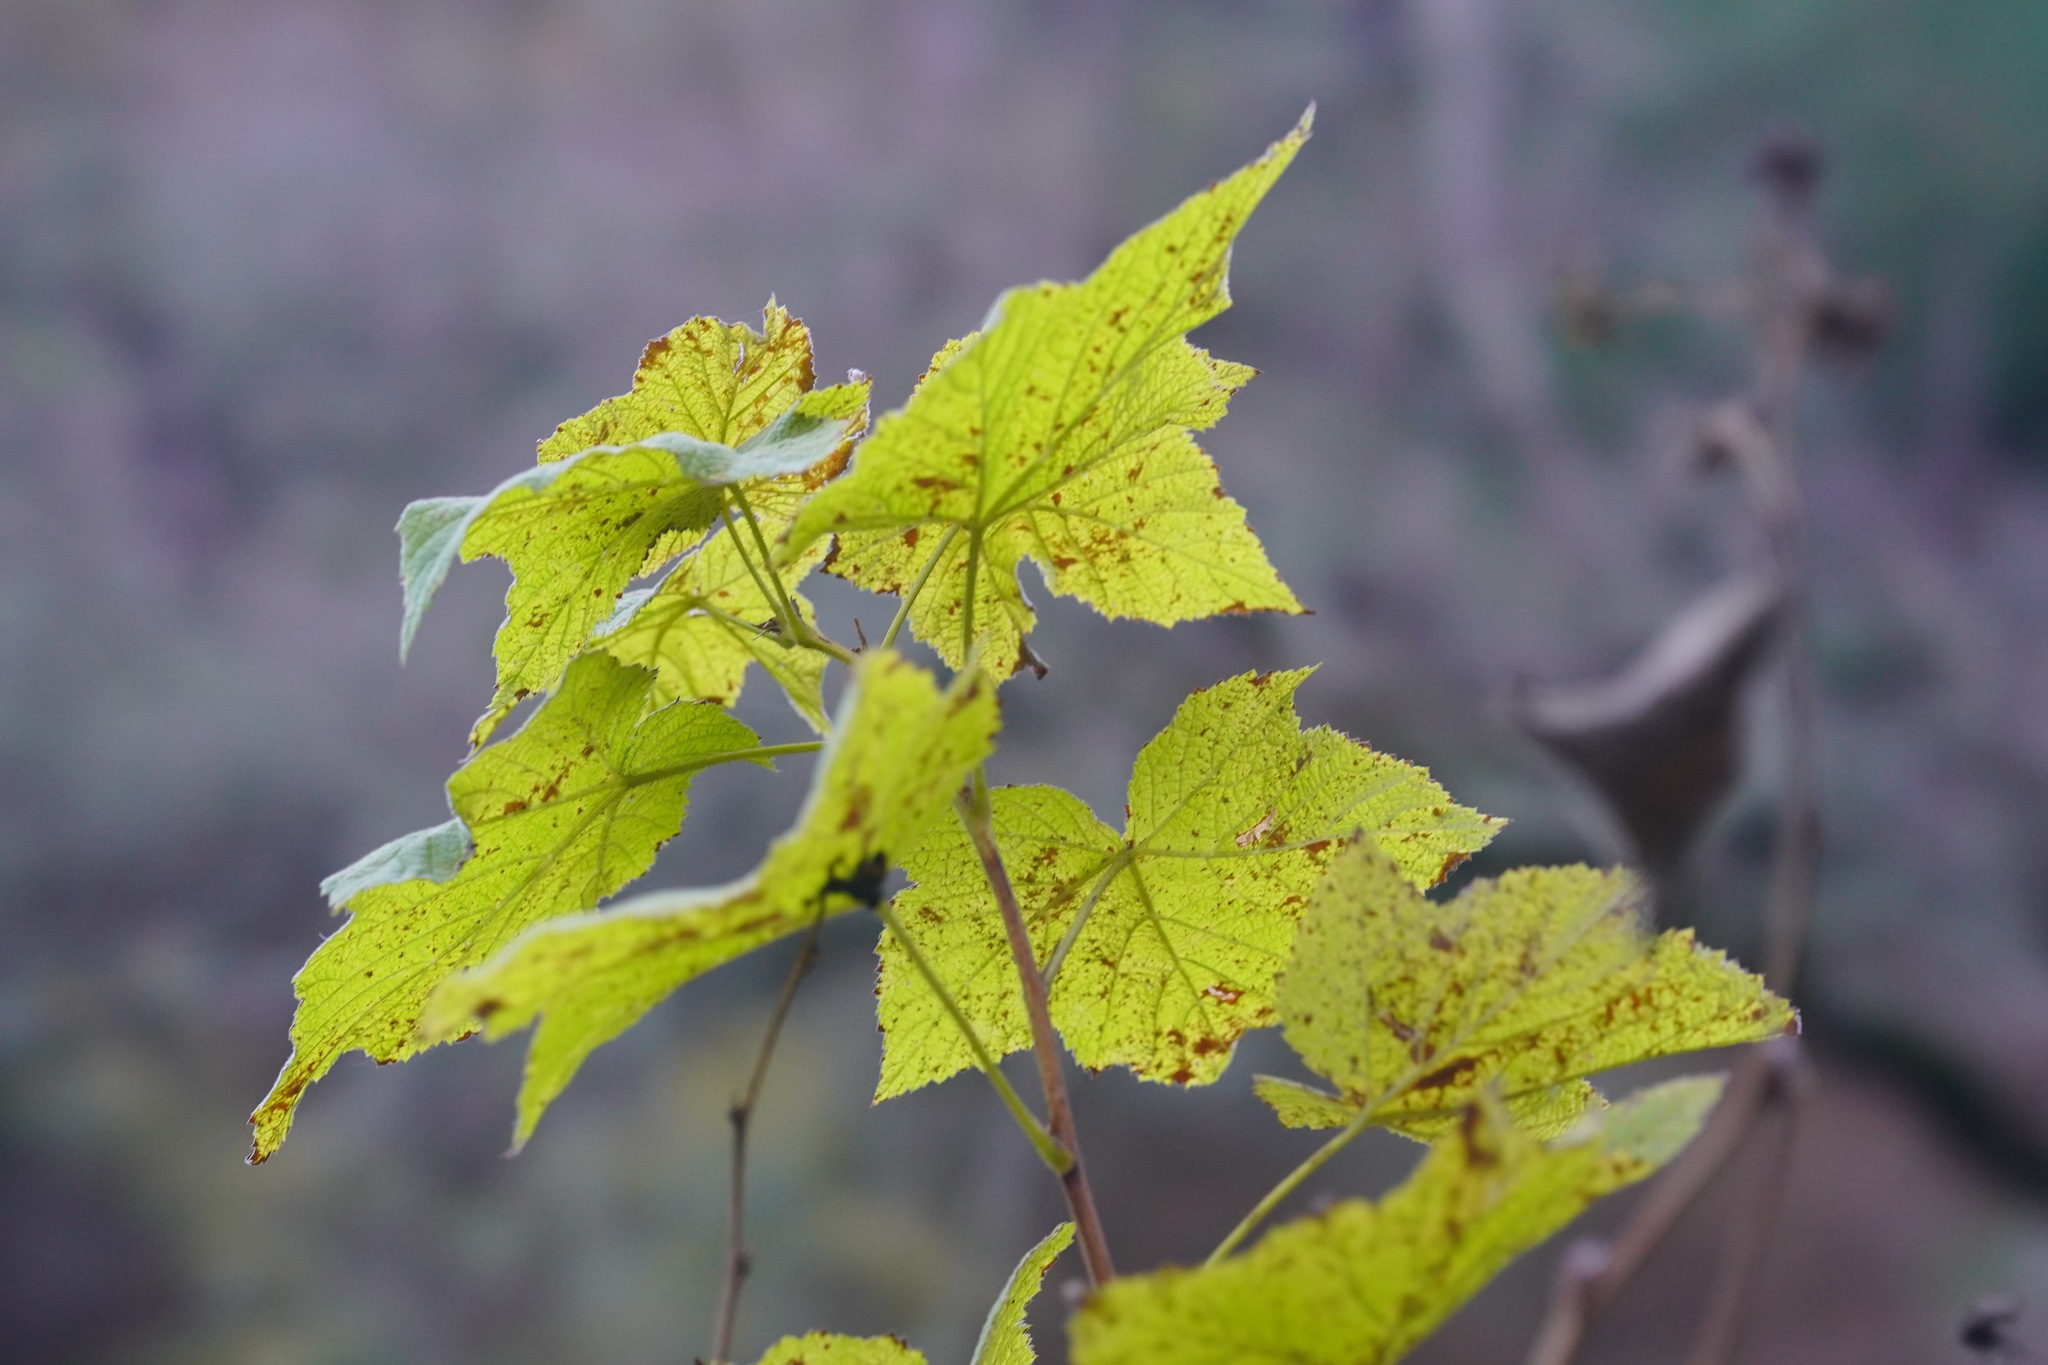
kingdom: Plantae
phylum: Tracheophyta
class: Magnoliopsida
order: Rosales
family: Rosaceae
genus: Rubus
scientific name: Rubus parviflorus
